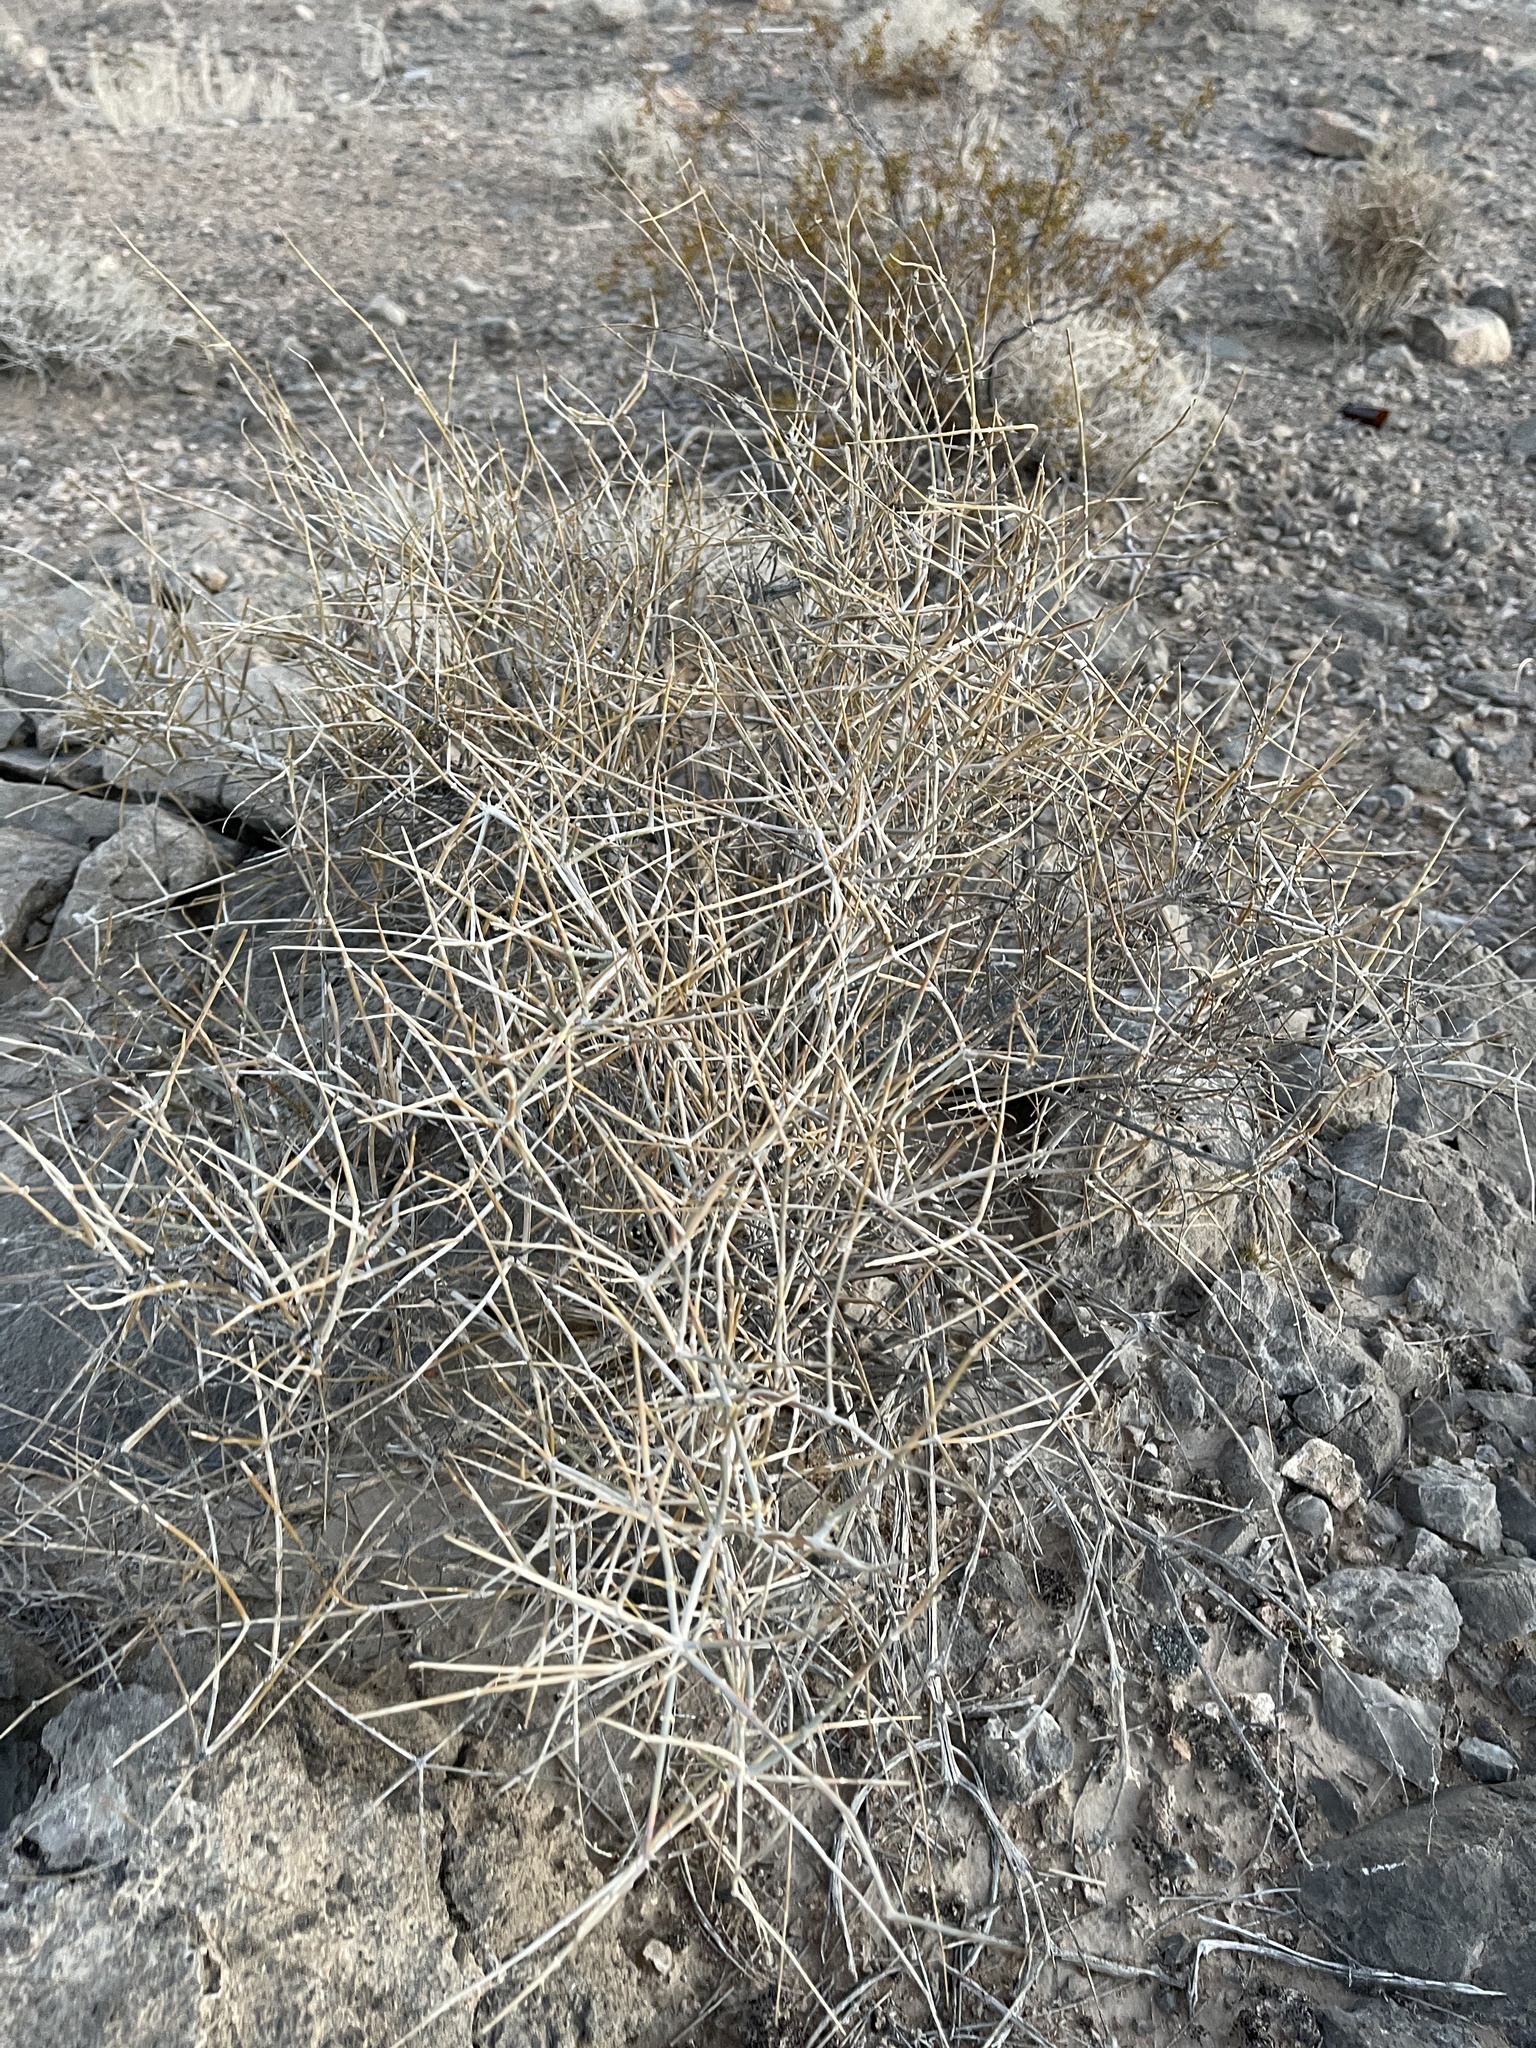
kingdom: Plantae
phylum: Tracheophyta
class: Gnetopsida
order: Ephedrales
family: Ephedraceae
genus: Ephedra
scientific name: Ephedra nevadensis
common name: Gray ephedra
